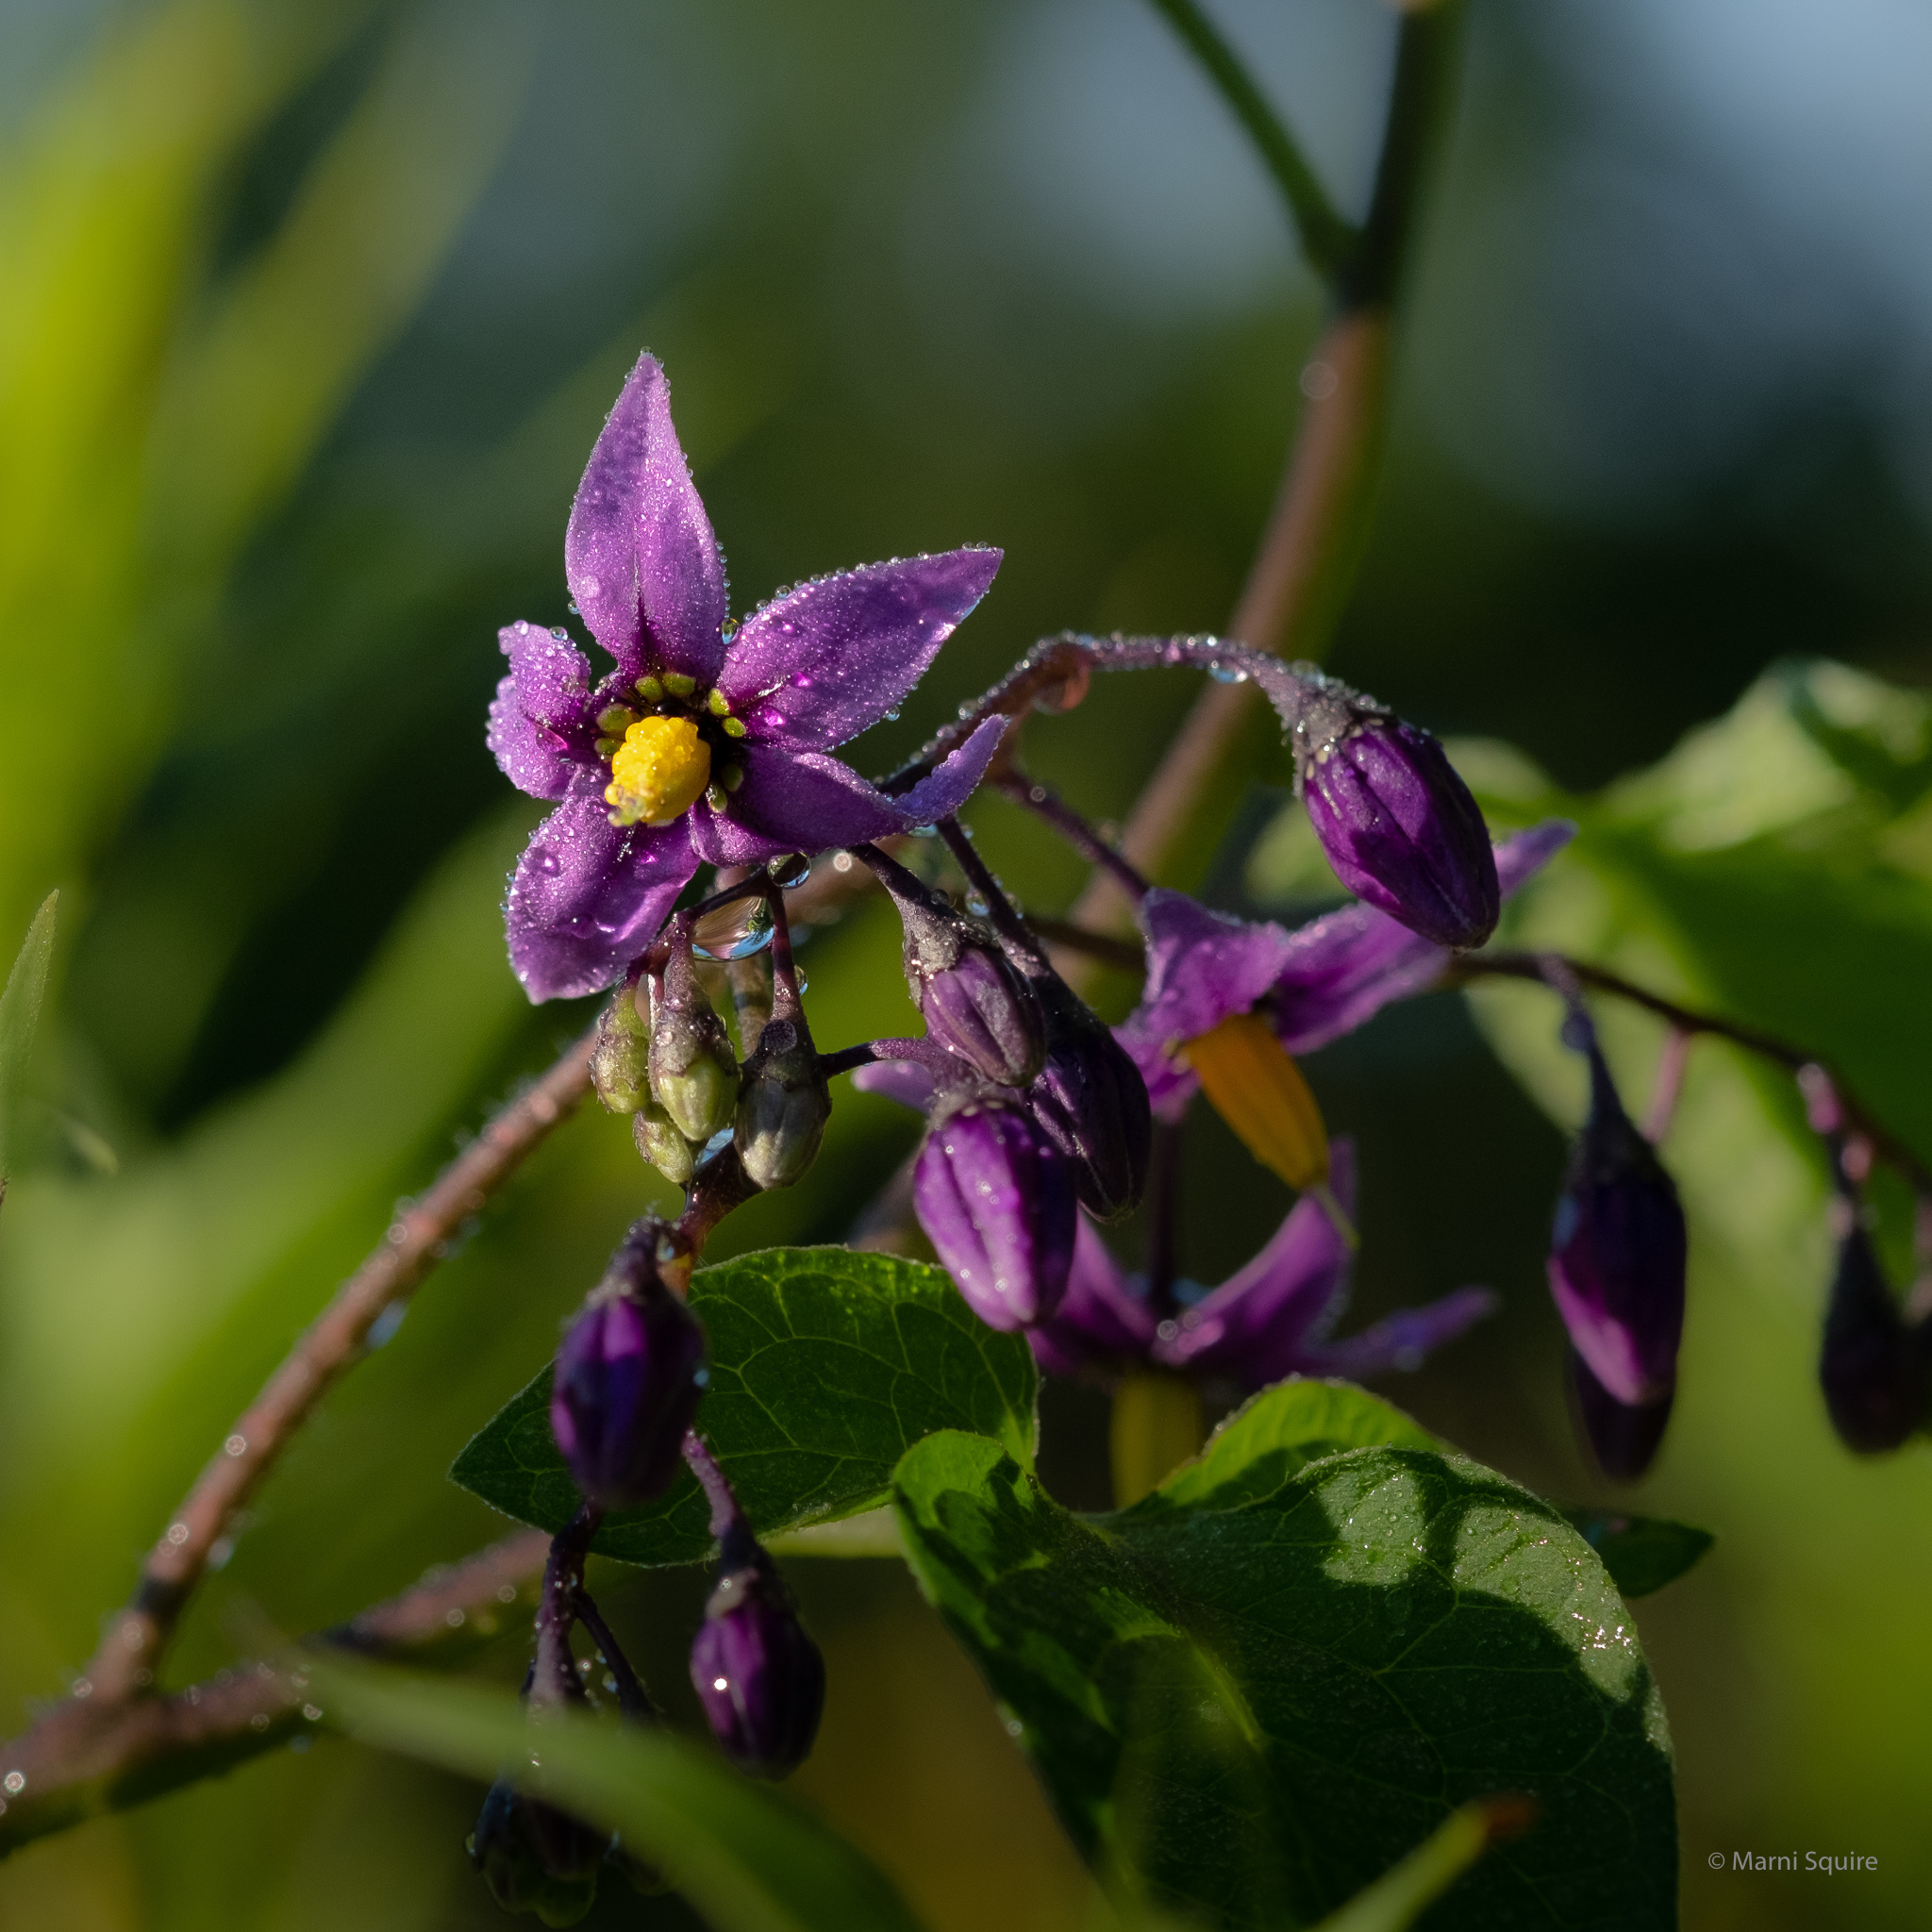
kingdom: Plantae
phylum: Tracheophyta
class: Magnoliopsida
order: Solanales
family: Solanaceae
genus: Solanum
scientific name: Solanum dulcamara
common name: Climbing nightshade
